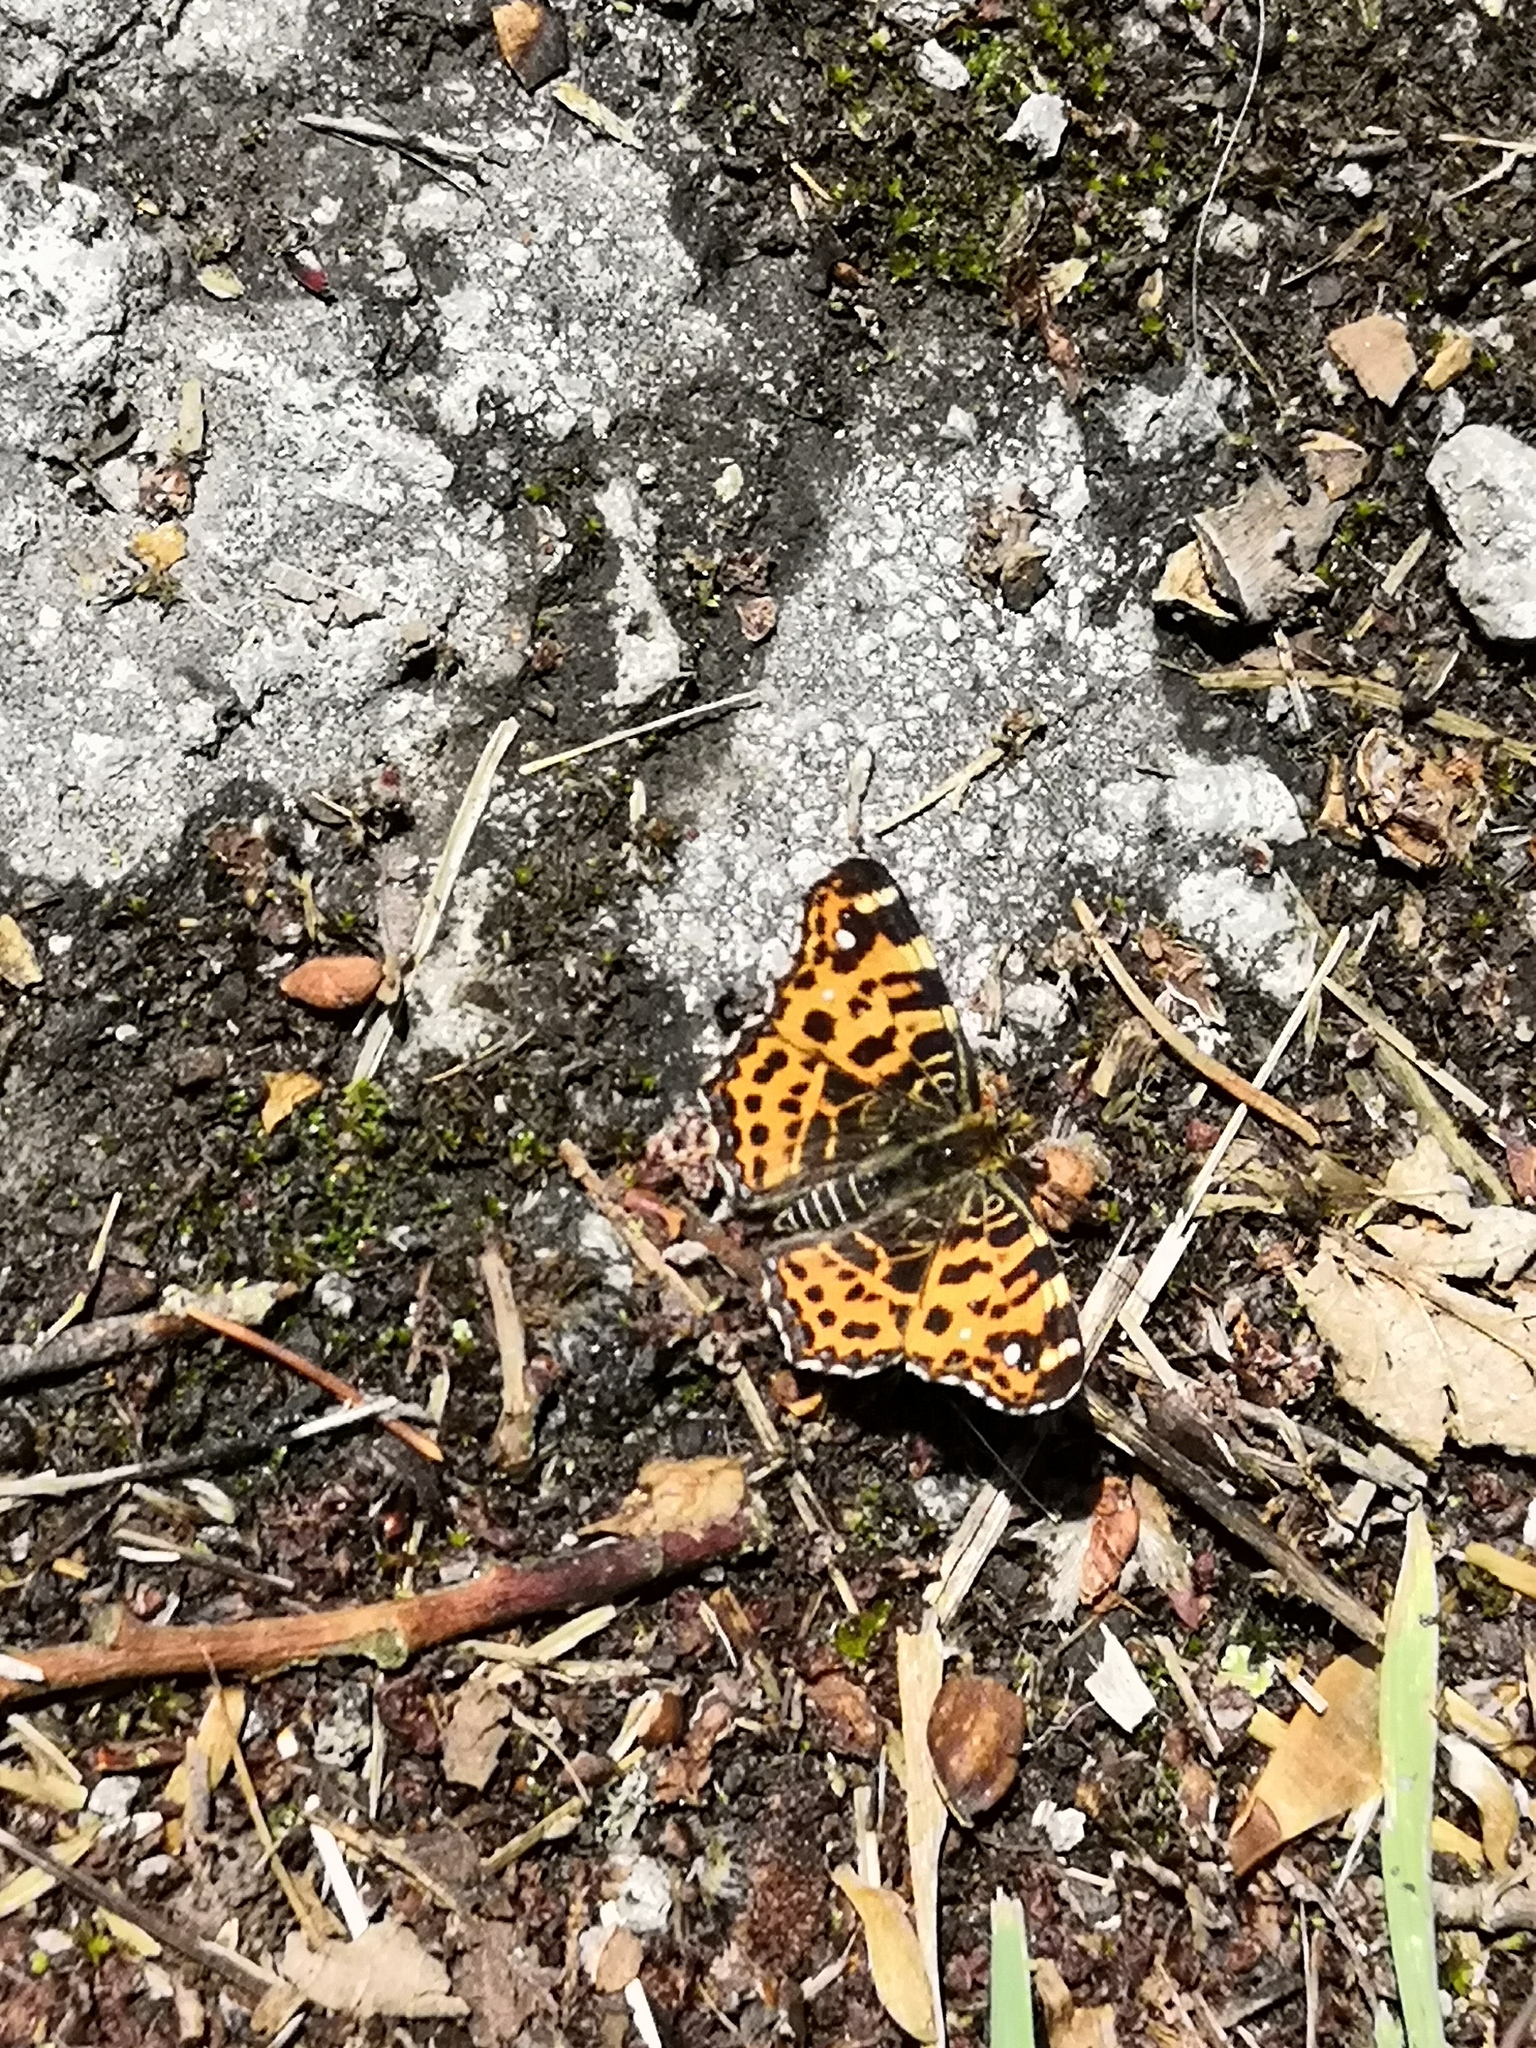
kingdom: Animalia
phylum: Arthropoda
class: Insecta
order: Lepidoptera
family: Nymphalidae
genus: Araschnia
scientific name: Araschnia levana
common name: Map butterfly
